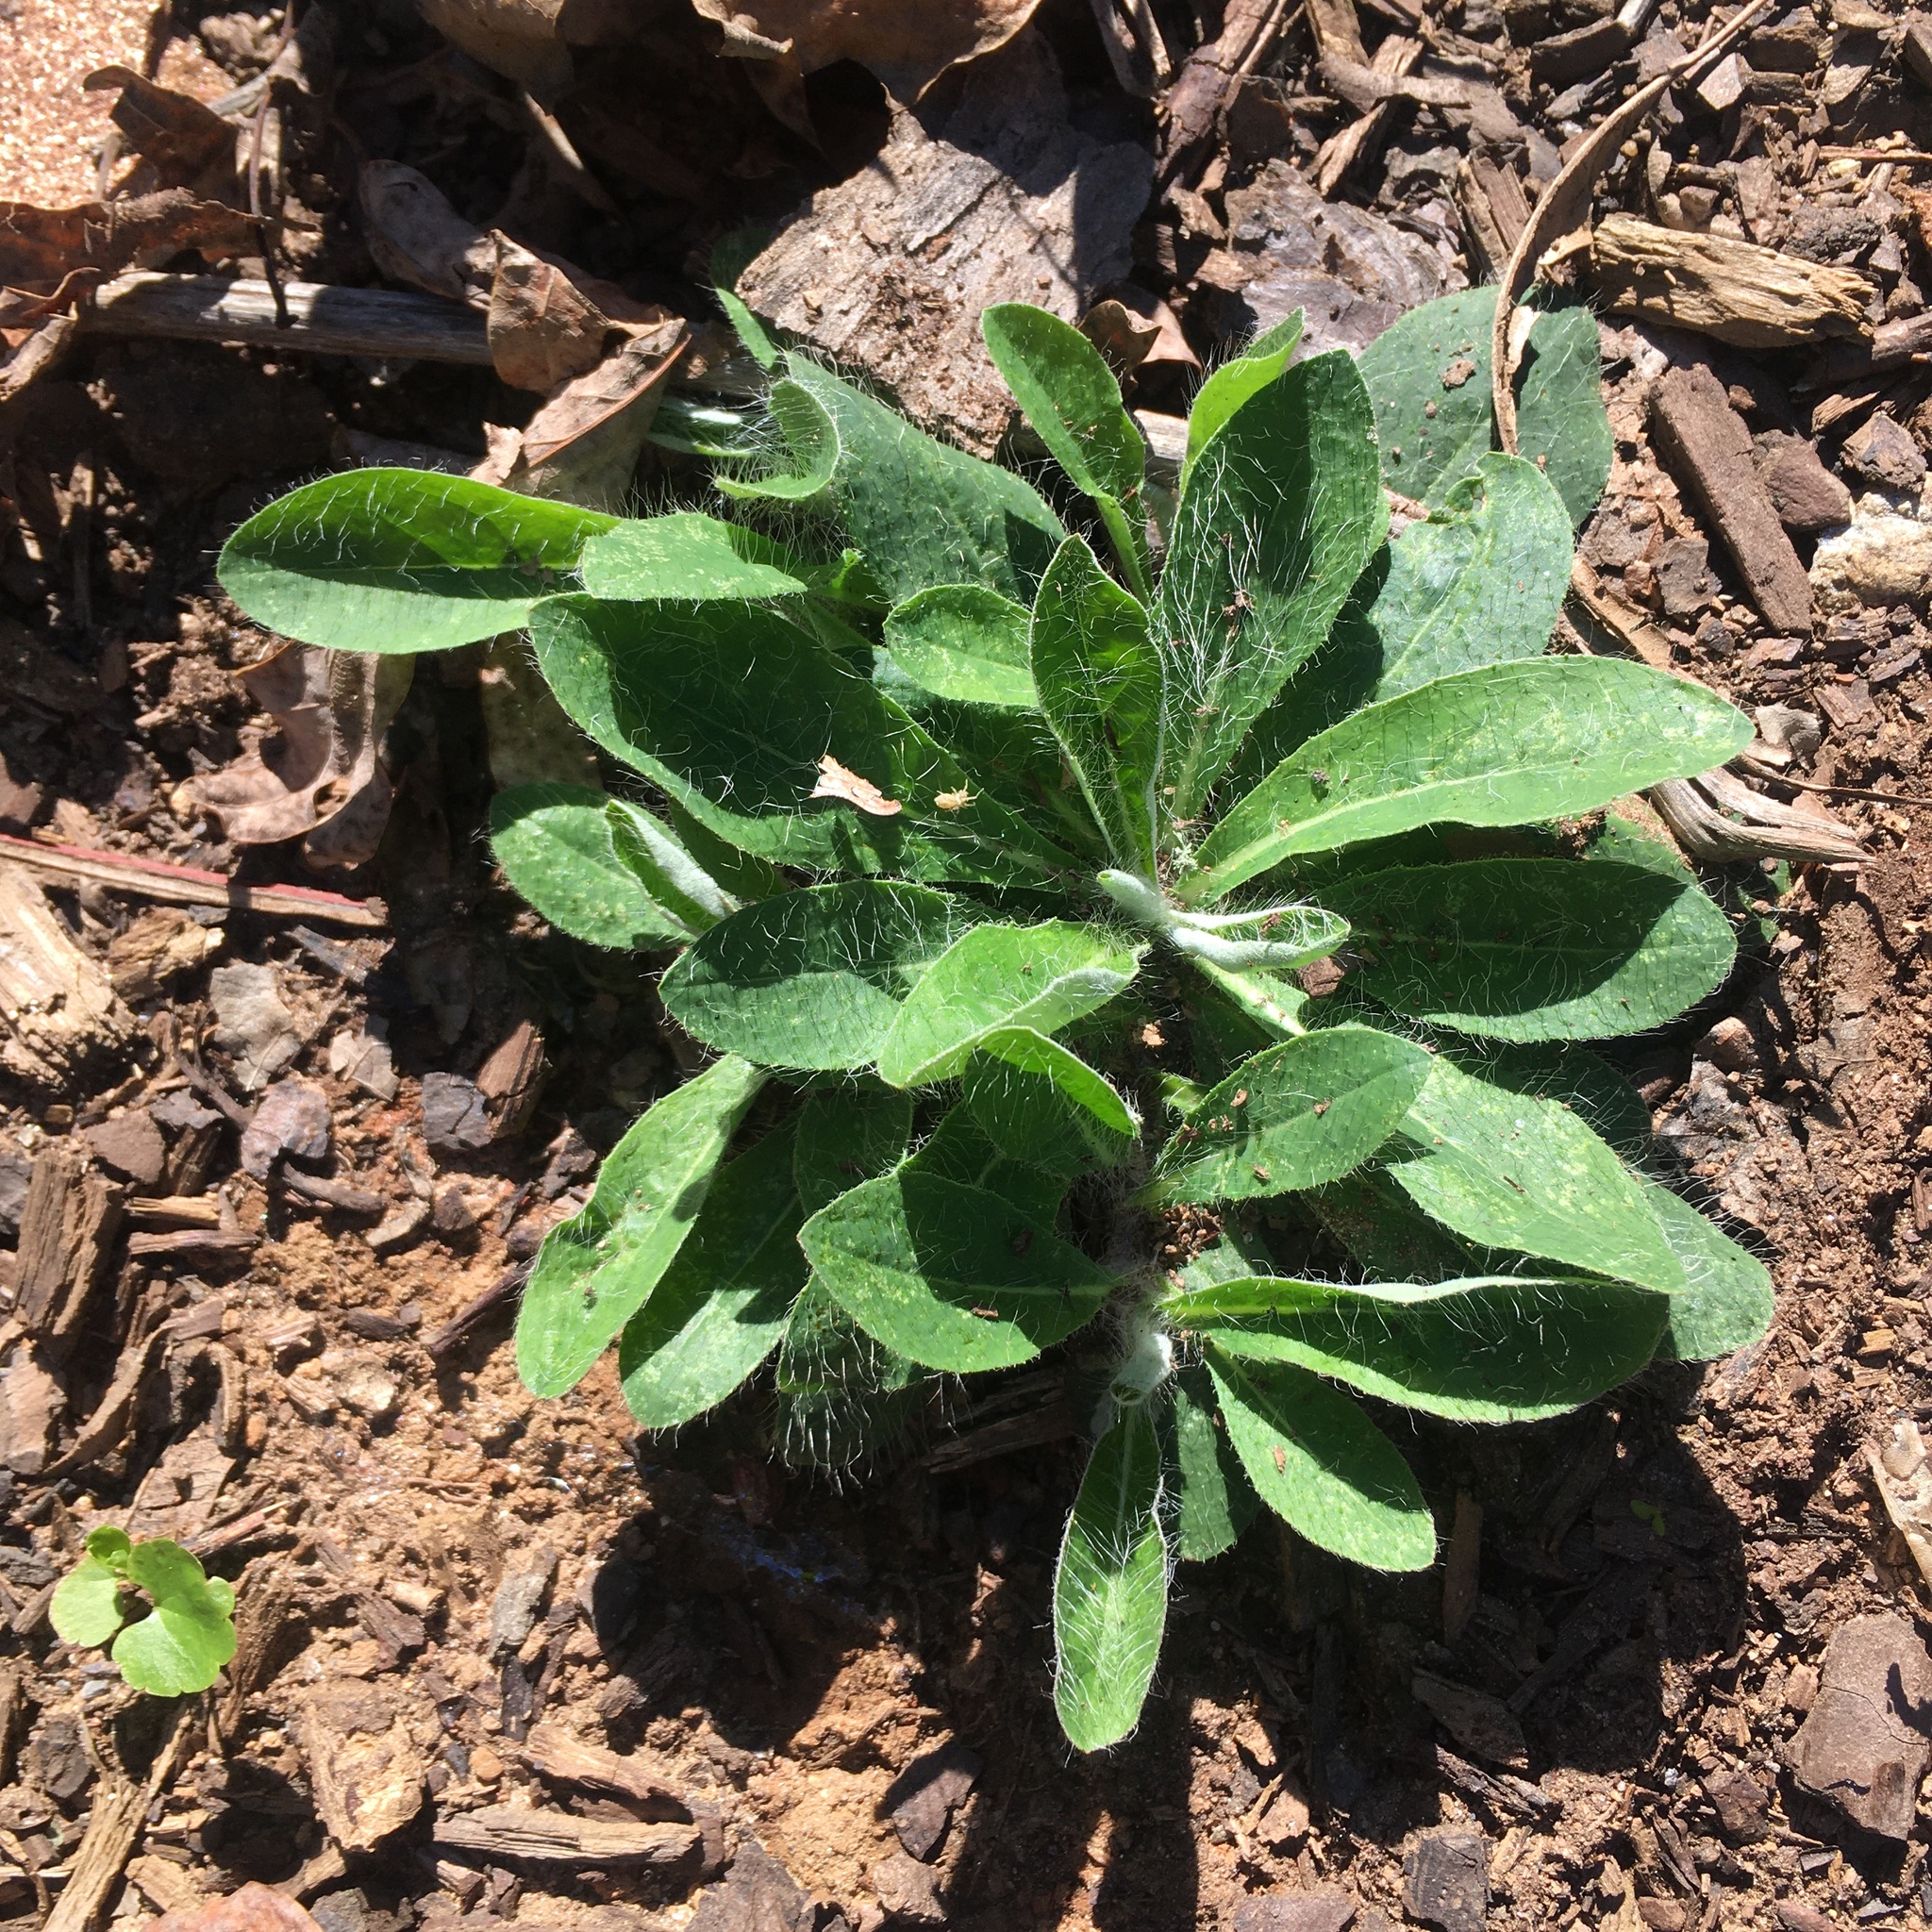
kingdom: Plantae
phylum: Tracheophyta
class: Magnoliopsida
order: Asterales
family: Asteraceae
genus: Pilosella
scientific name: Pilosella officinarum
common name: Mouse-ear hawkweed
